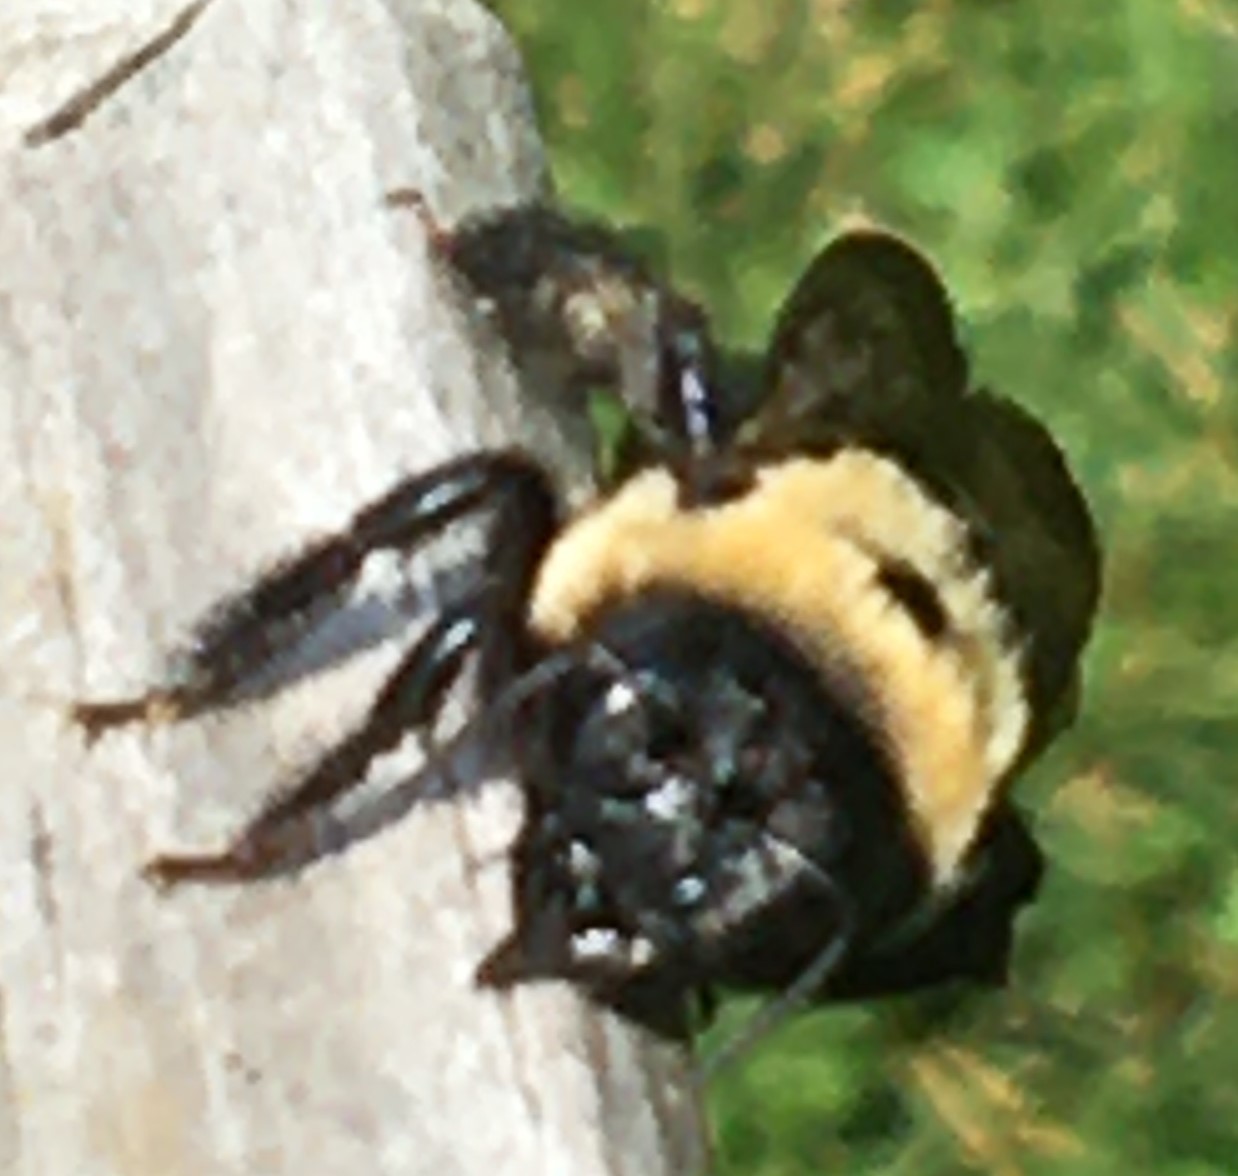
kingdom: Animalia
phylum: Arthropoda
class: Insecta
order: Hymenoptera
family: Apidae
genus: Xylocopa
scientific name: Xylocopa virginica
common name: Carpenter bee
